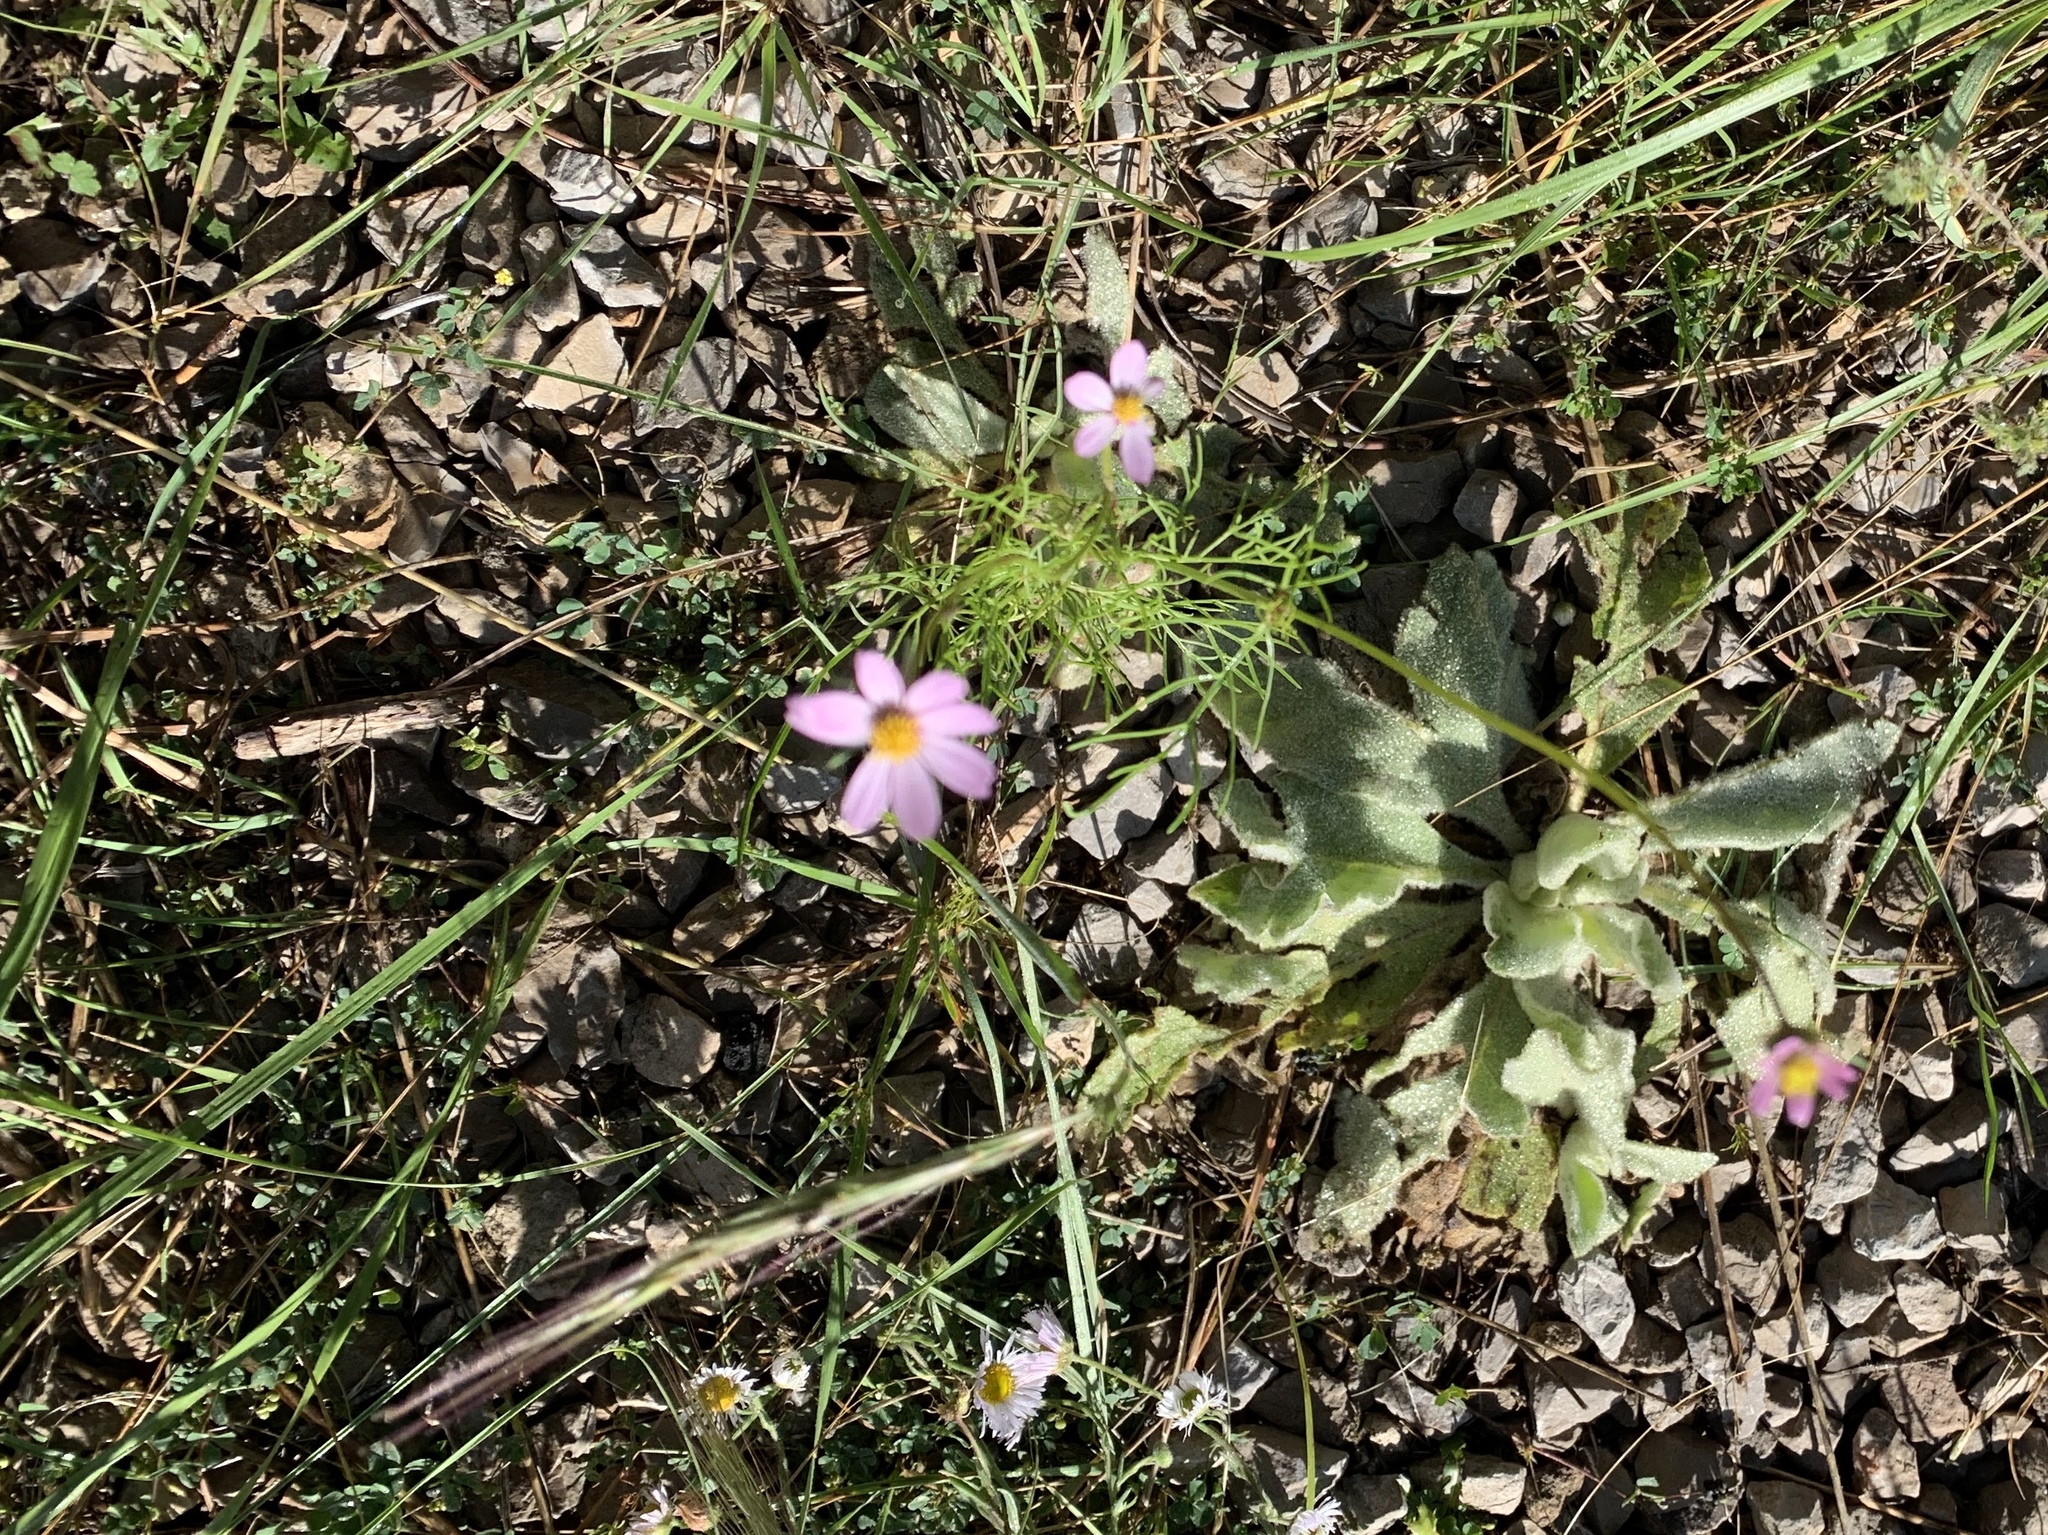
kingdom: Plantae
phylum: Tracheophyta
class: Magnoliopsida
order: Asterales
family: Asteraceae
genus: Cosmos
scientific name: Cosmos parviflorus
